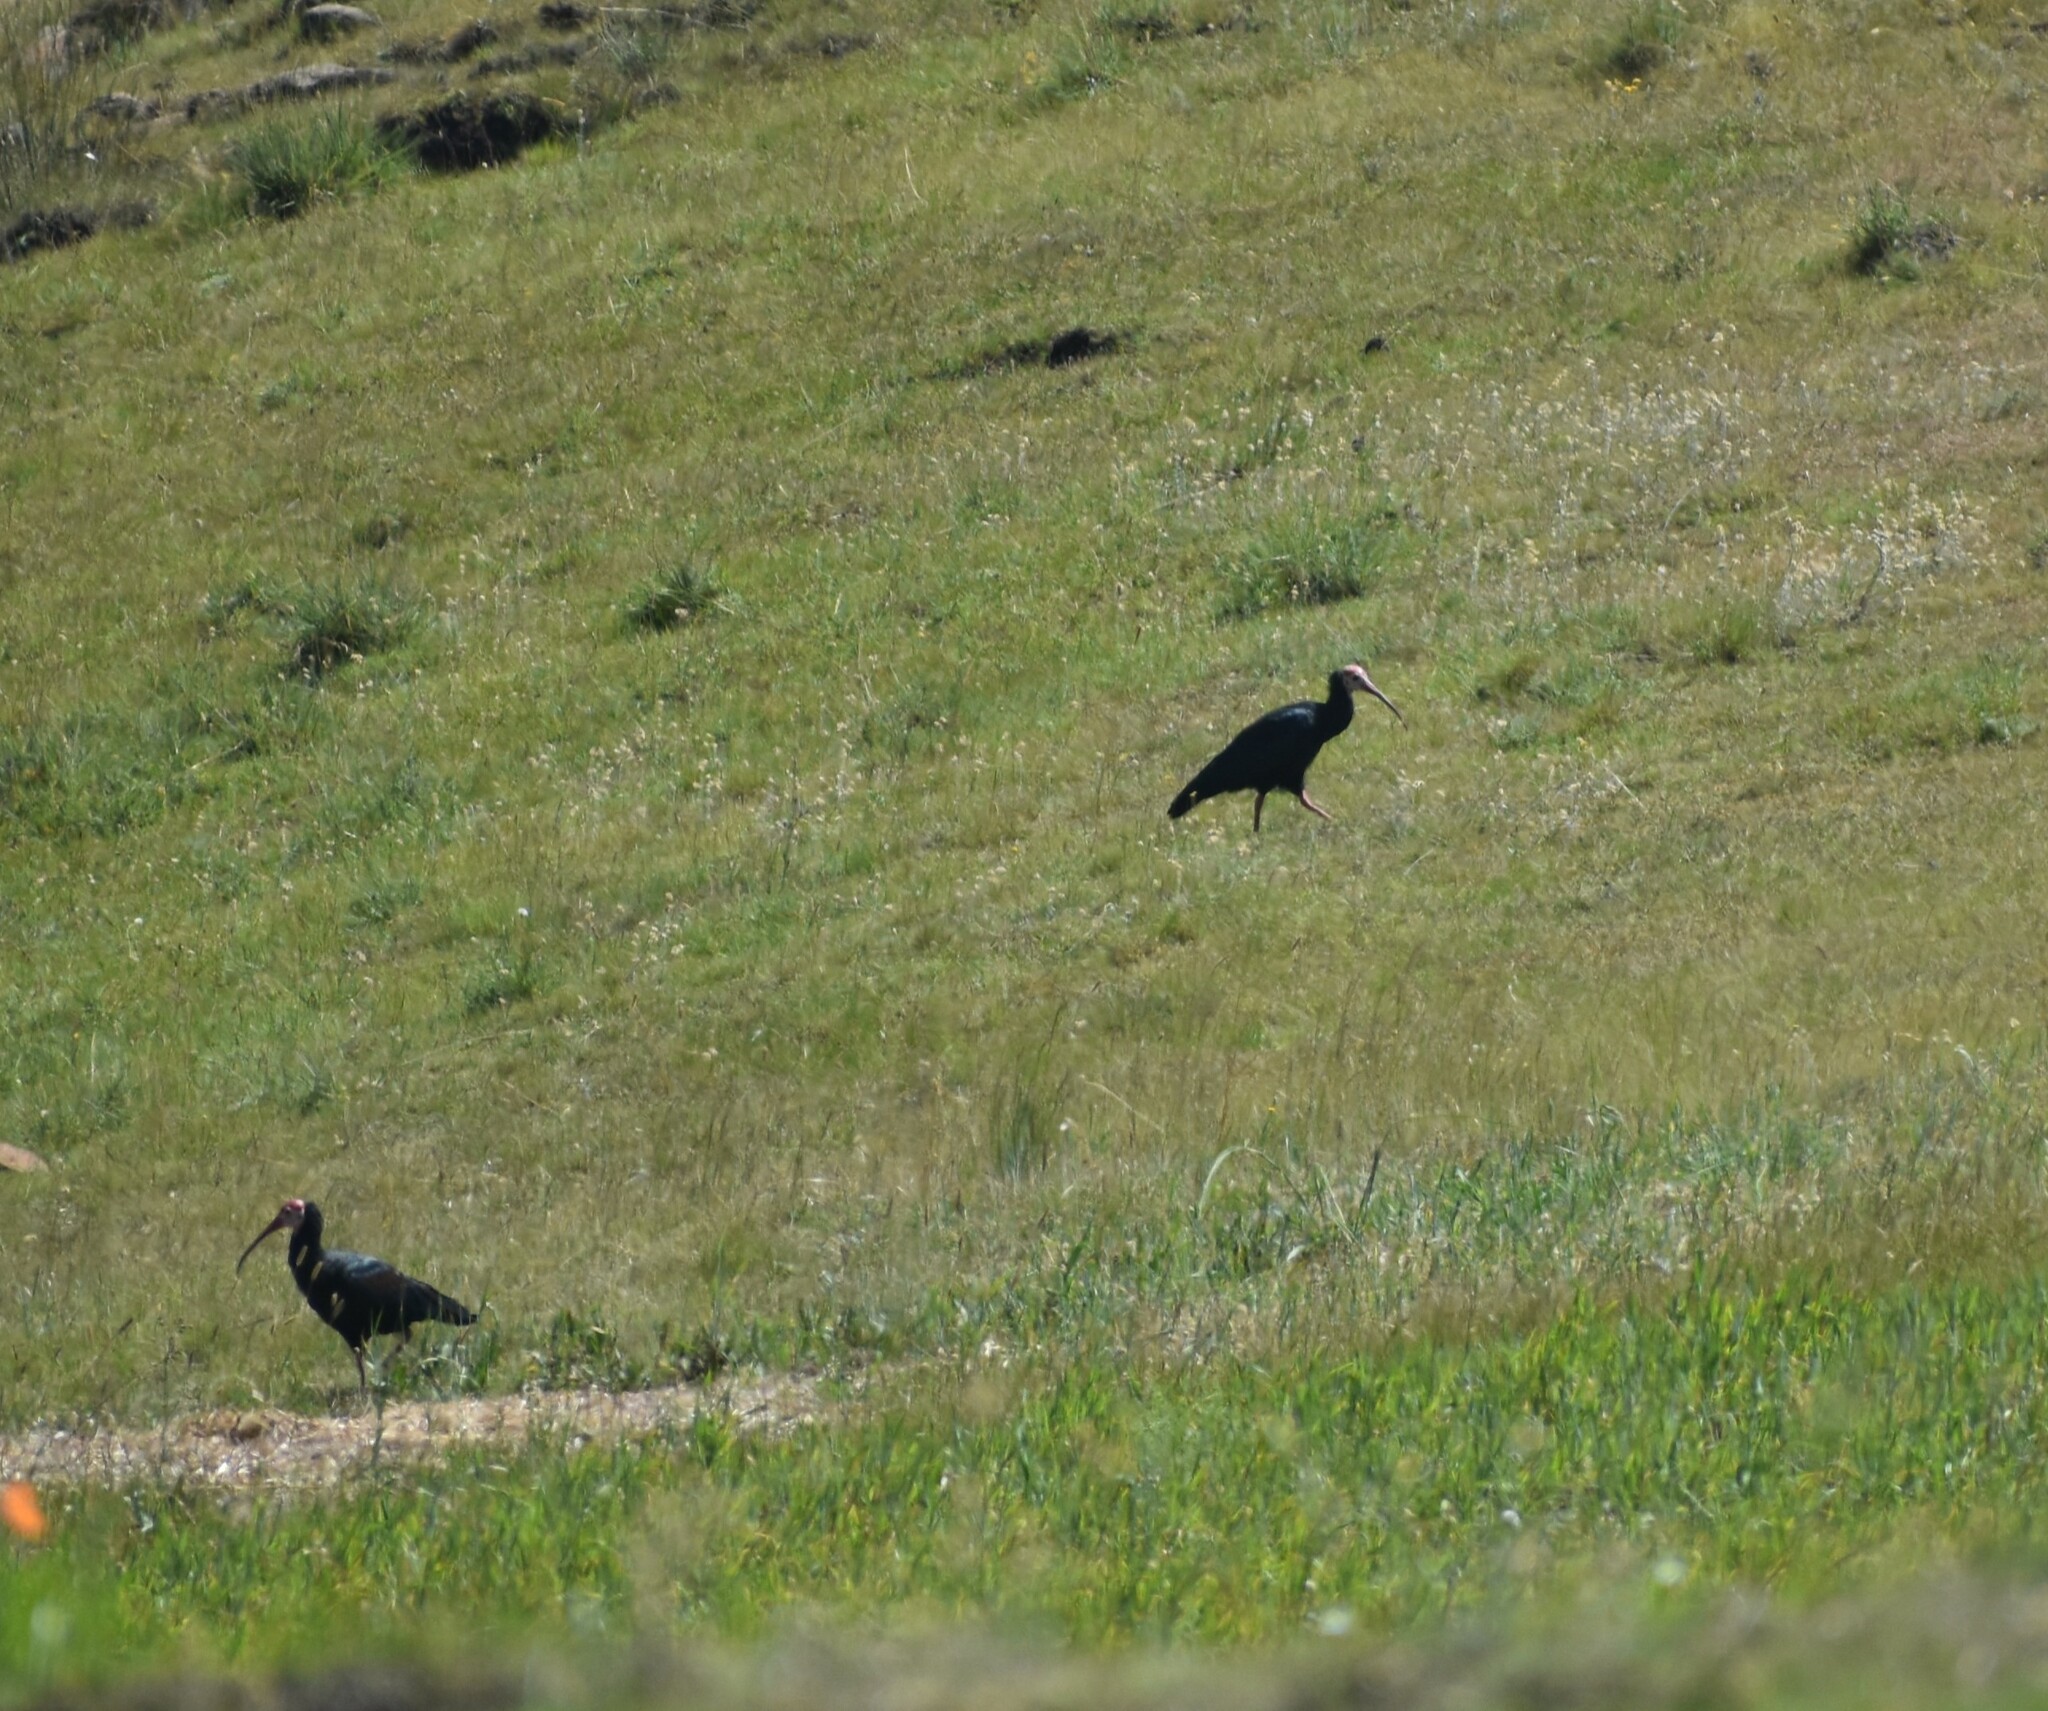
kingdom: Animalia
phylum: Chordata
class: Aves
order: Pelecaniformes
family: Threskiornithidae
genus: Geronticus
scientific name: Geronticus calvus
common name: Southern bald ibis
